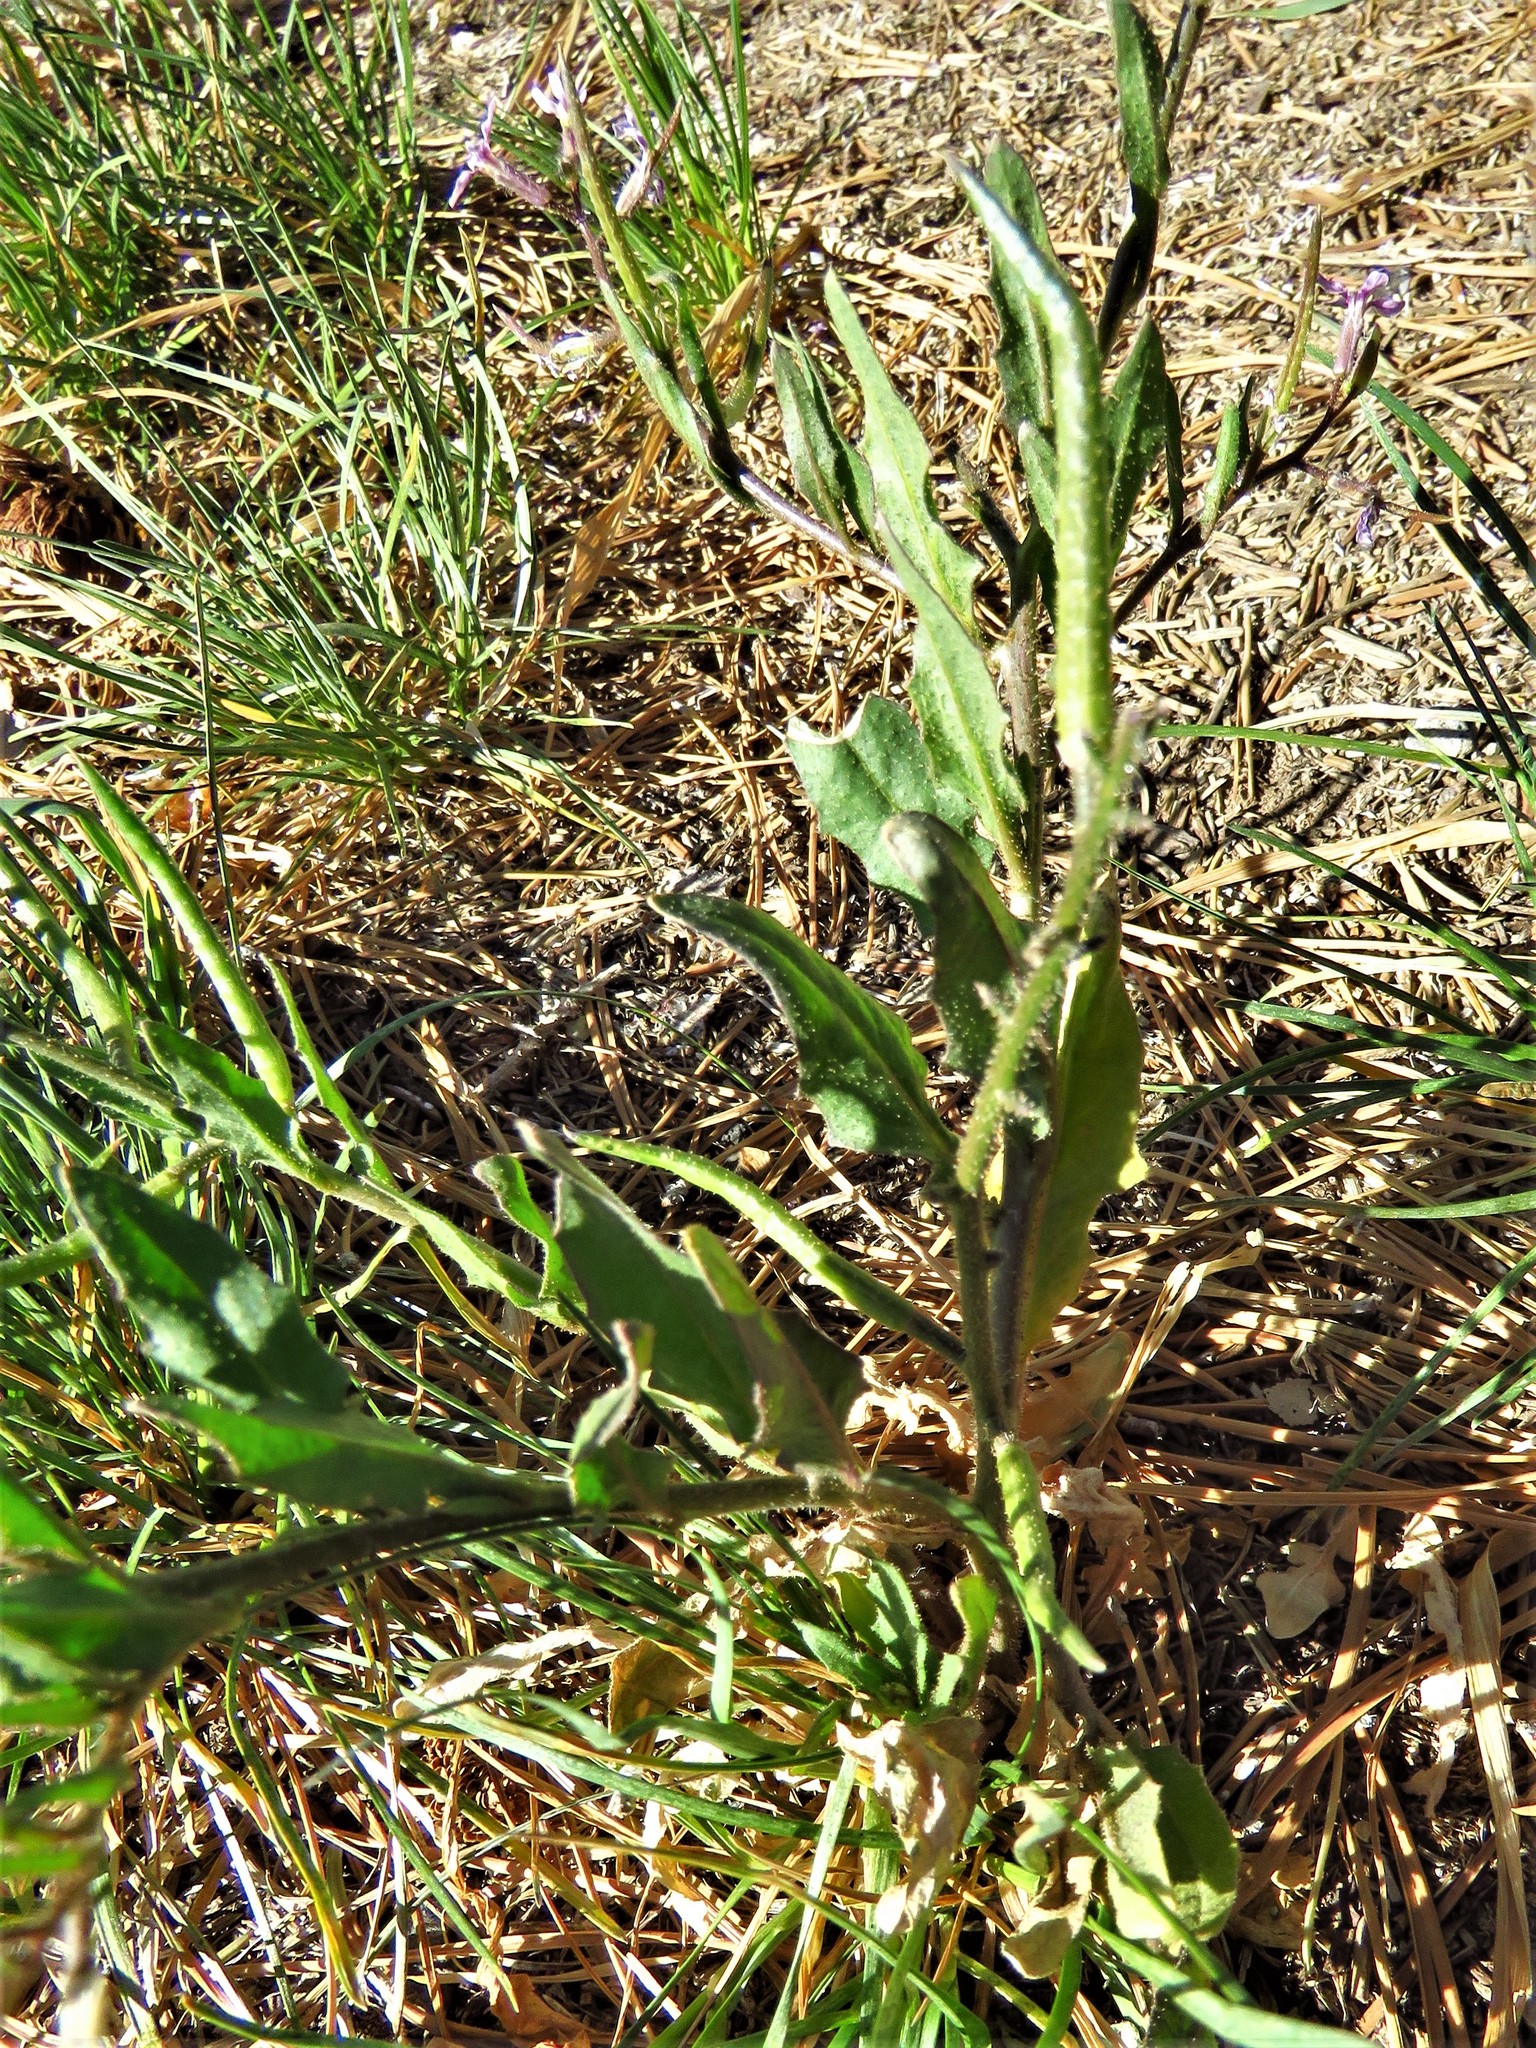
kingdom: Plantae
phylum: Tracheophyta
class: Magnoliopsida
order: Brassicales
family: Brassicaceae
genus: Chorispora
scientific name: Chorispora tenella
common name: Crossflower
